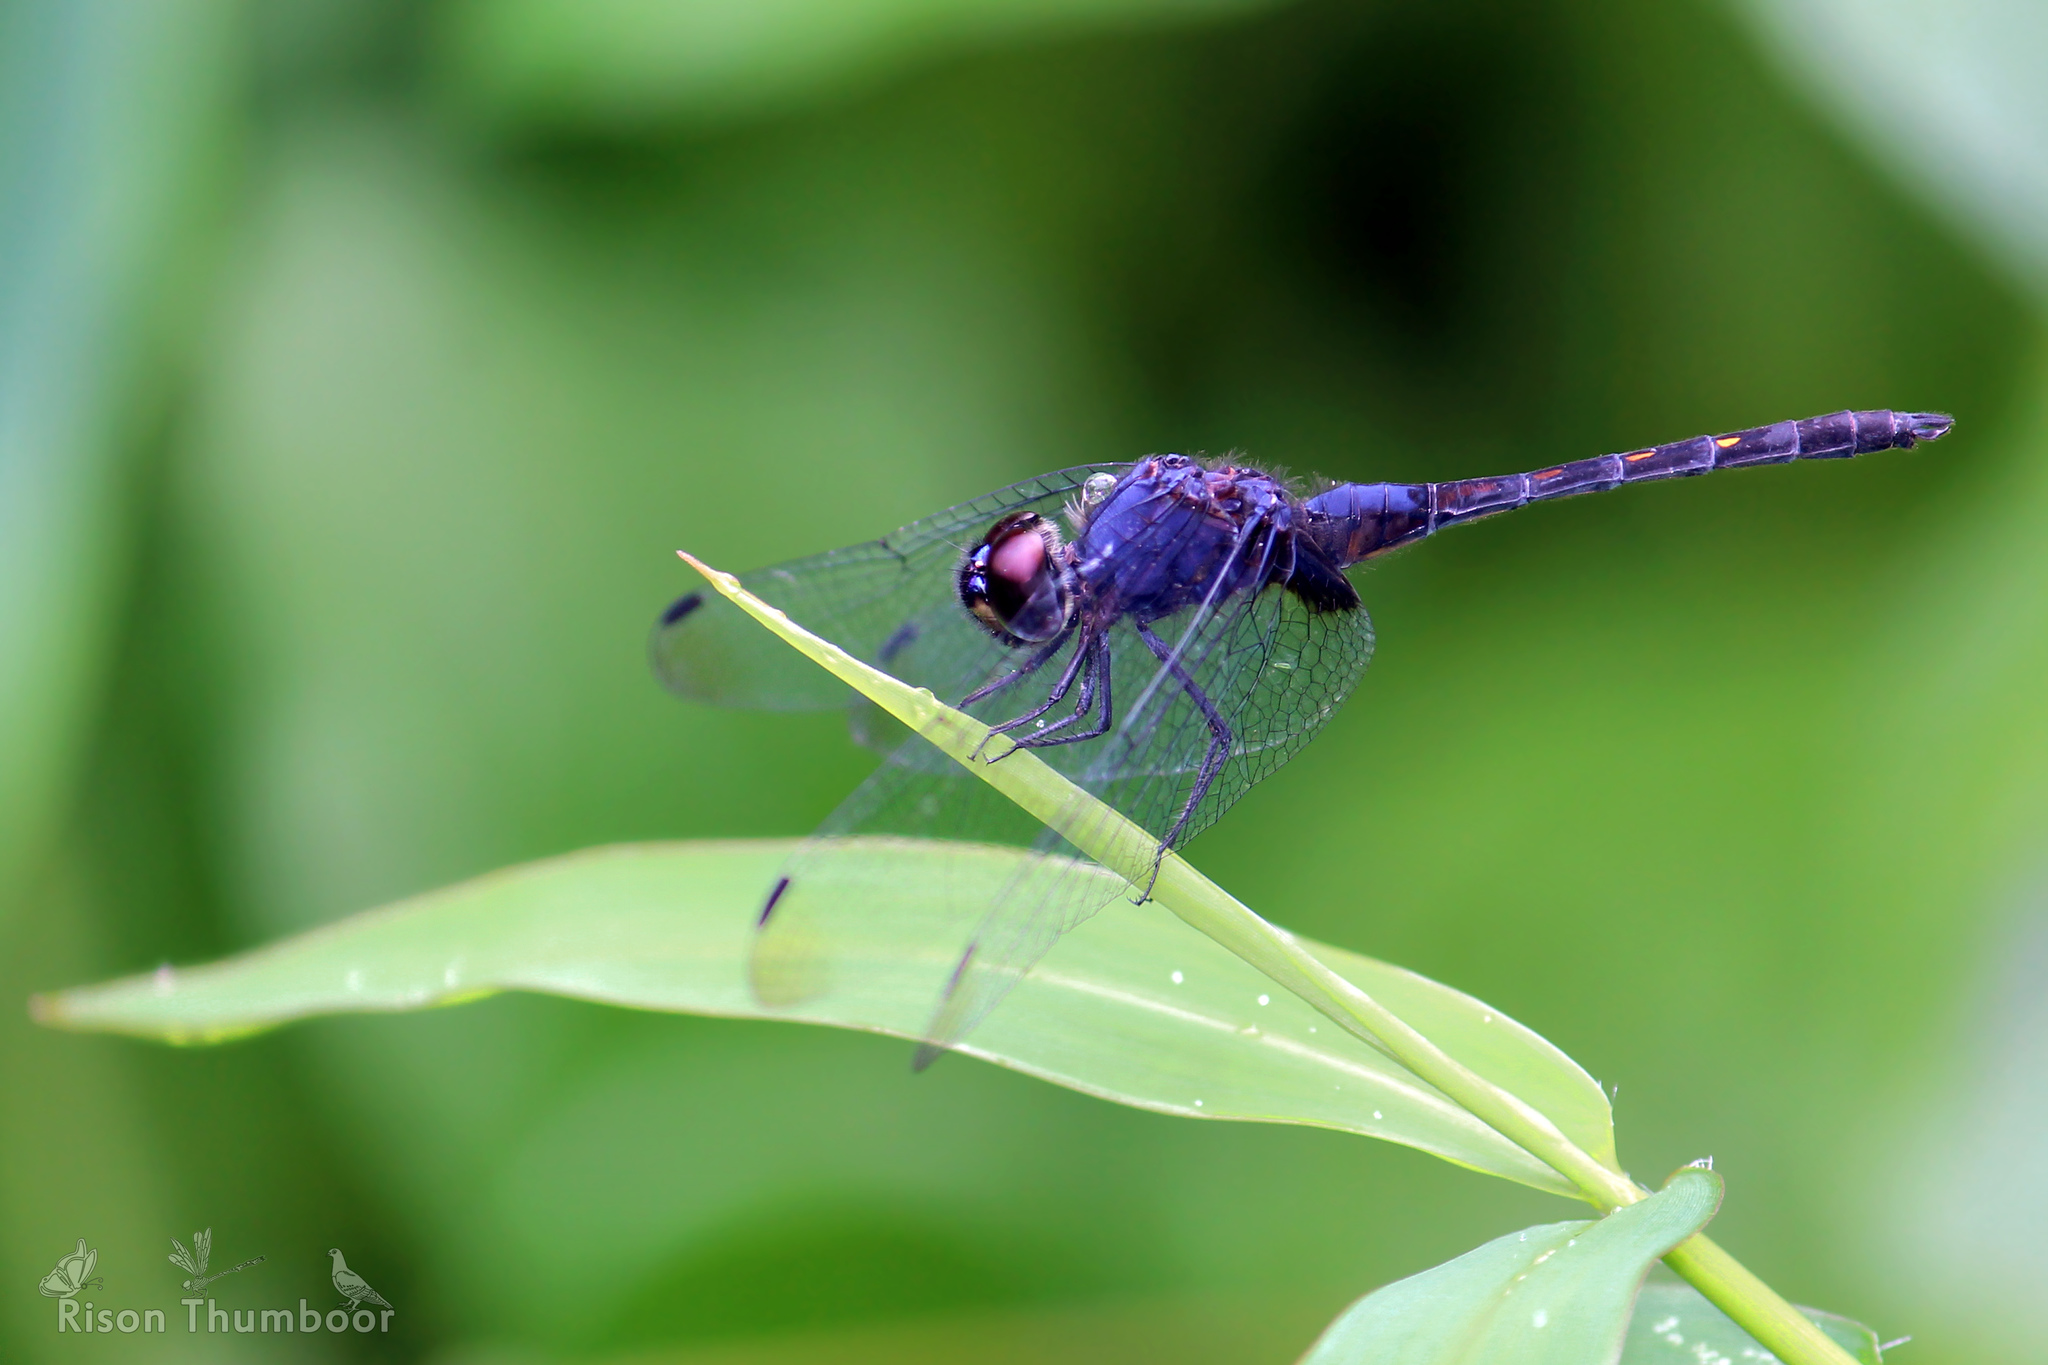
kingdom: Animalia
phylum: Arthropoda
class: Insecta
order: Odonata
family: Libellulidae
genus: Trithemis
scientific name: Trithemis festiva
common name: Indigo dropwing
